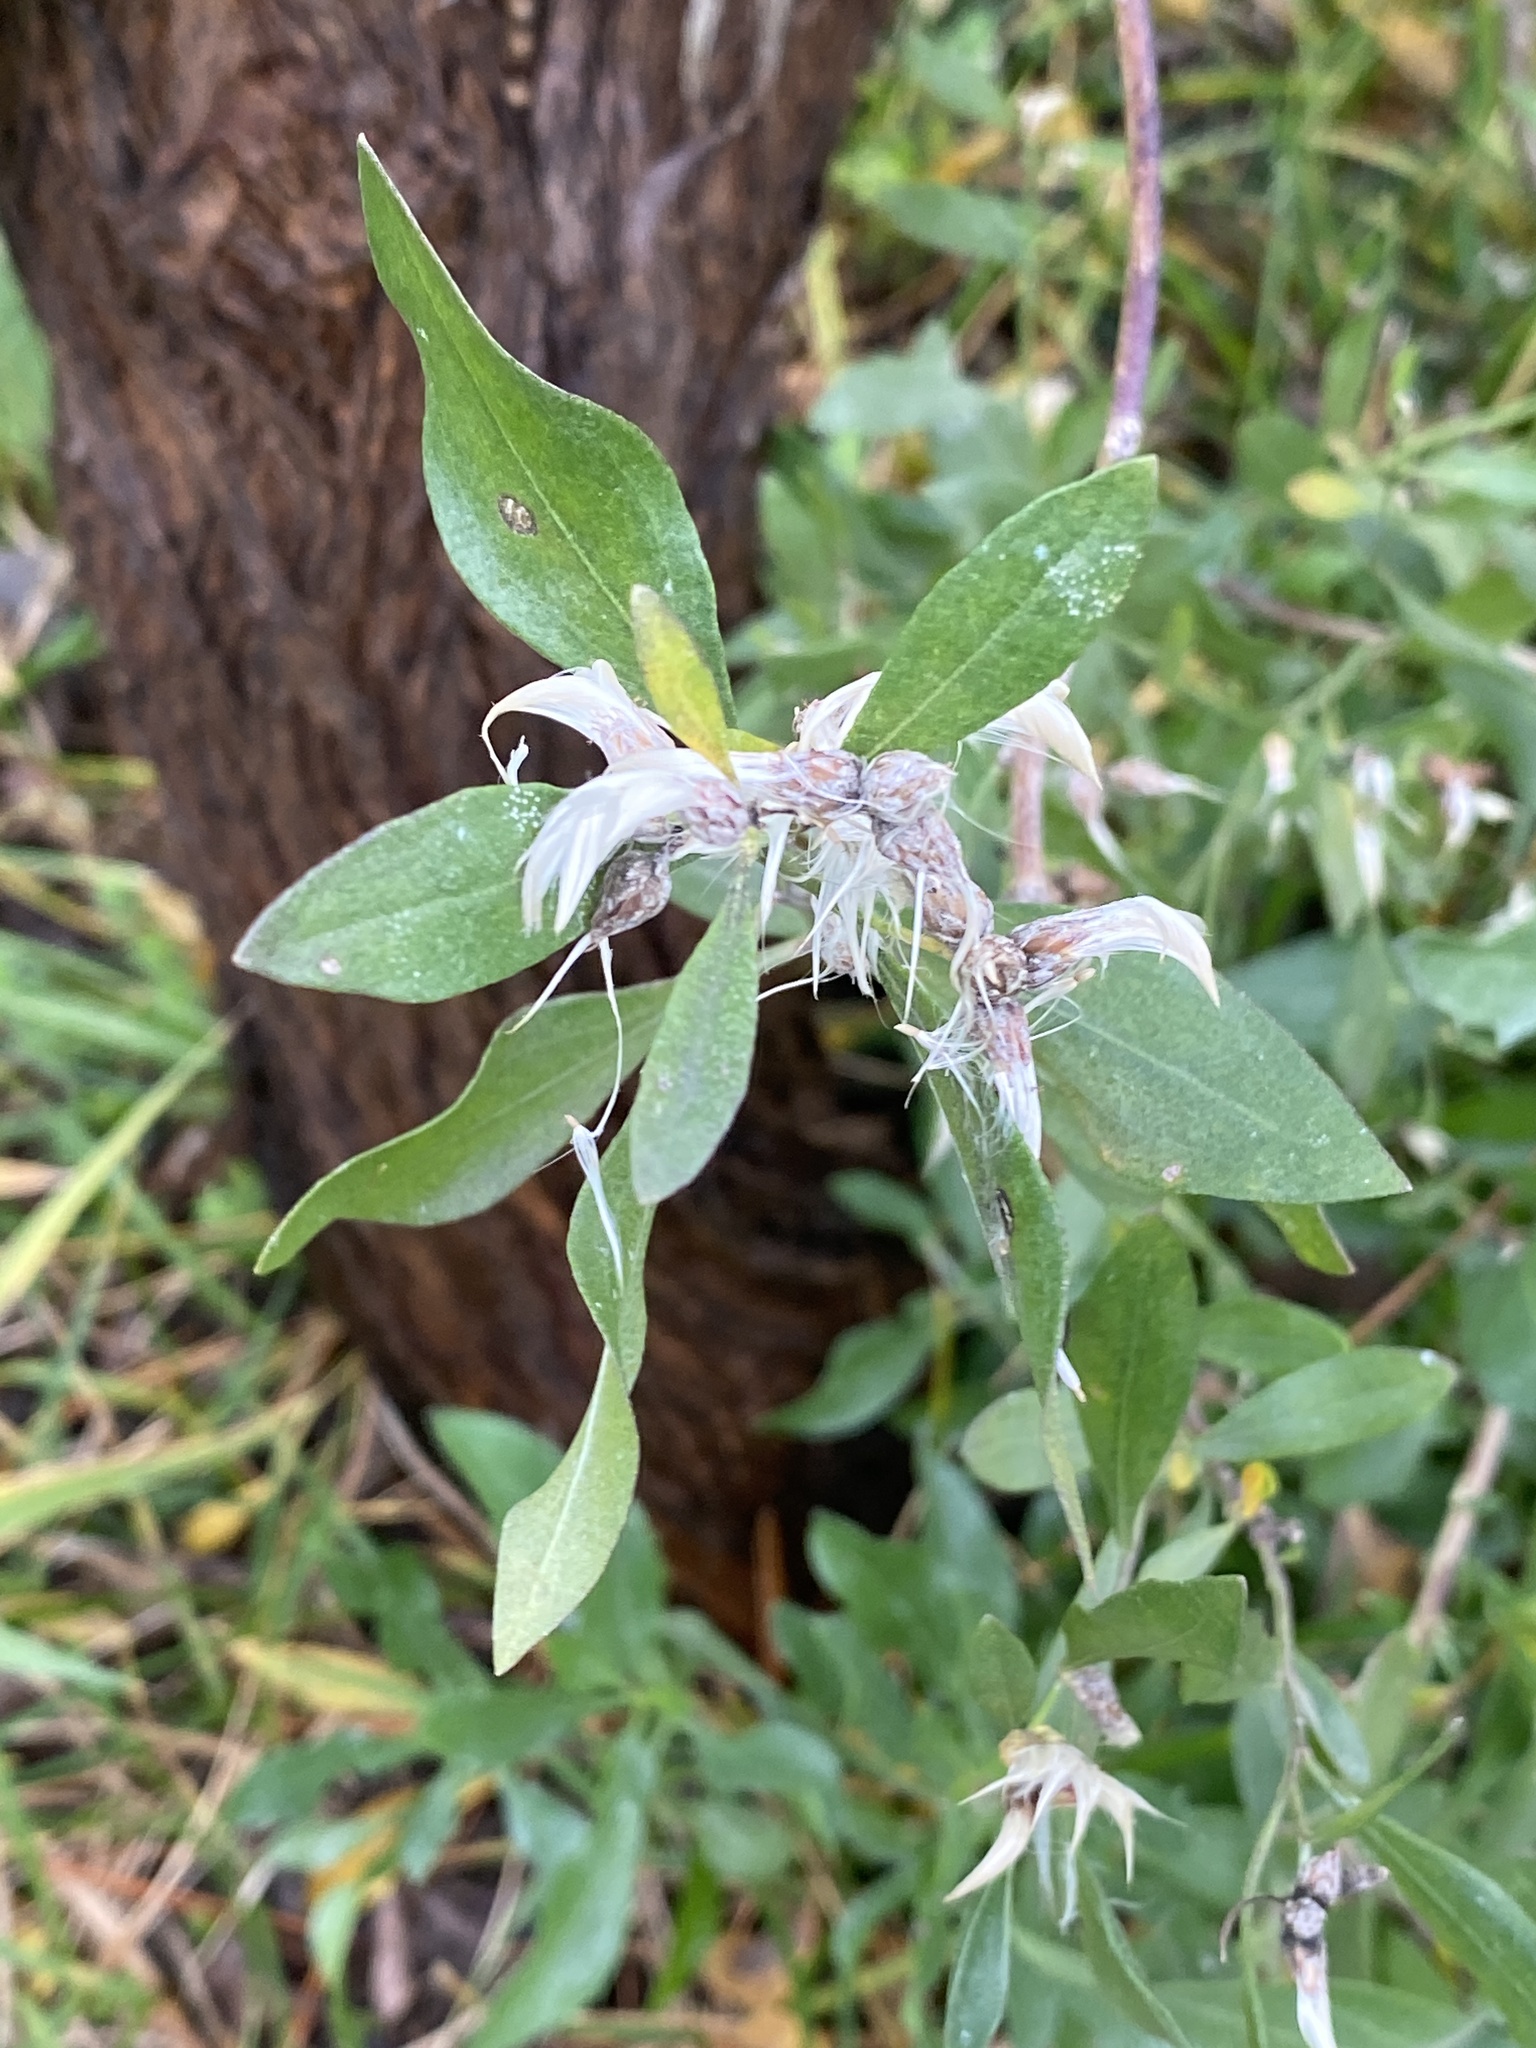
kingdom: Plantae
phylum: Tracheophyta
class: Magnoliopsida
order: Asterales
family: Asteraceae
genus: Baccharis
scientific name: Baccharis halimifolia
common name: Eastern baccharis
